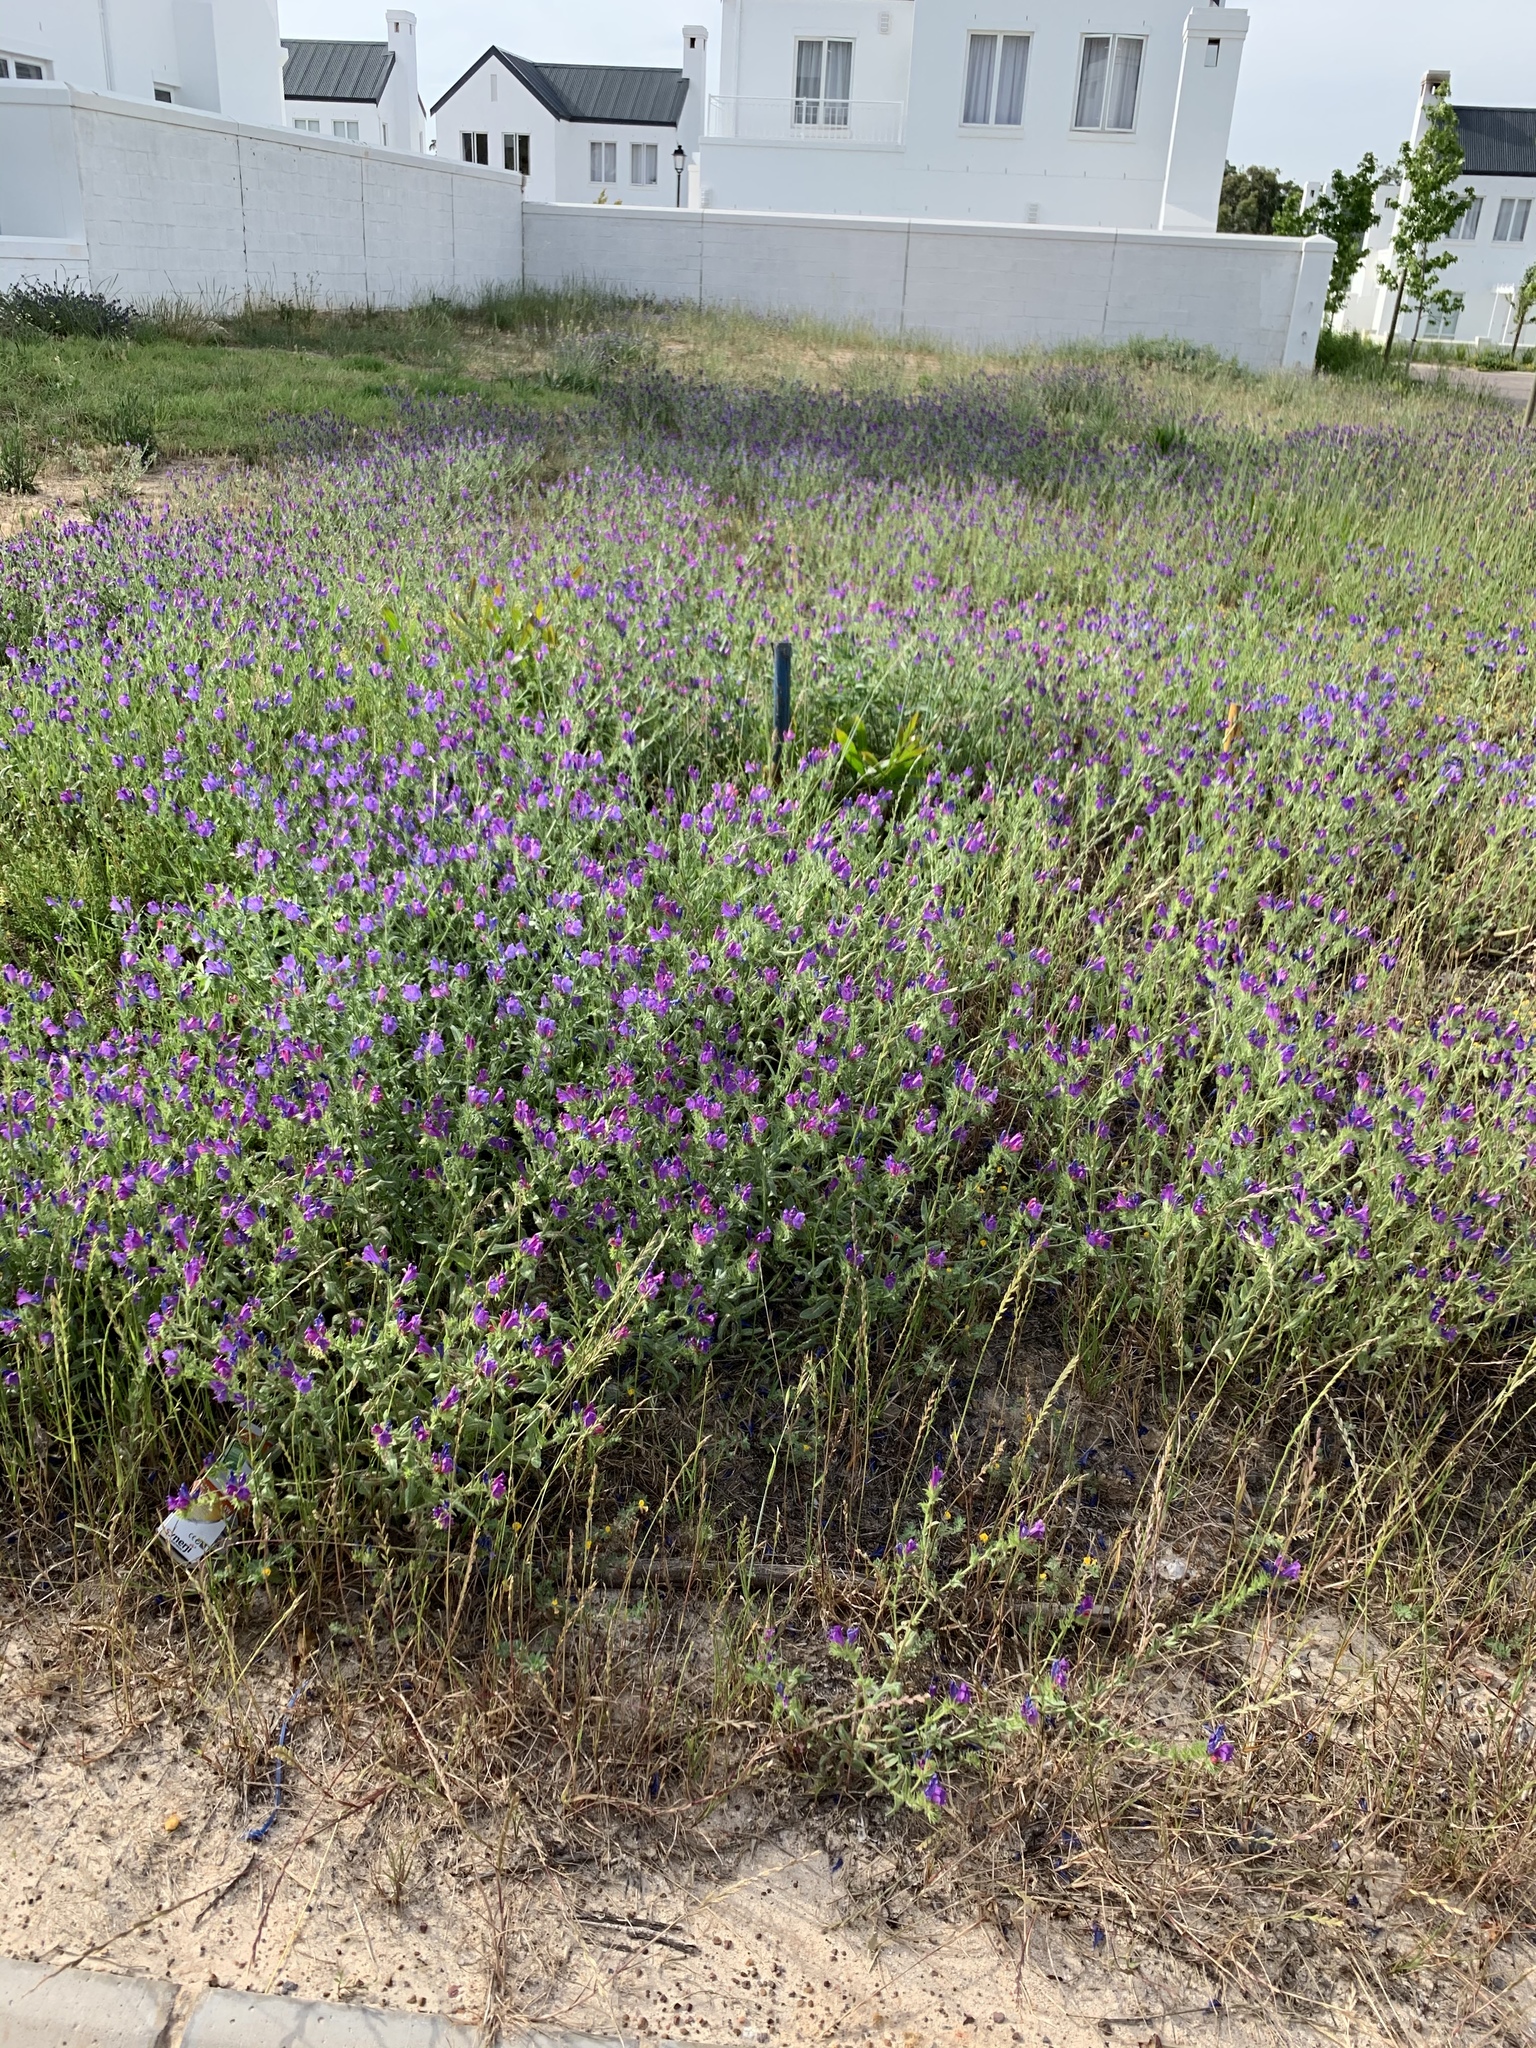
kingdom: Plantae
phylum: Tracheophyta
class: Magnoliopsida
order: Boraginales
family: Boraginaceae
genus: Echium
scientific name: Echium plantagineum
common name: Purple viper's-bugloss
